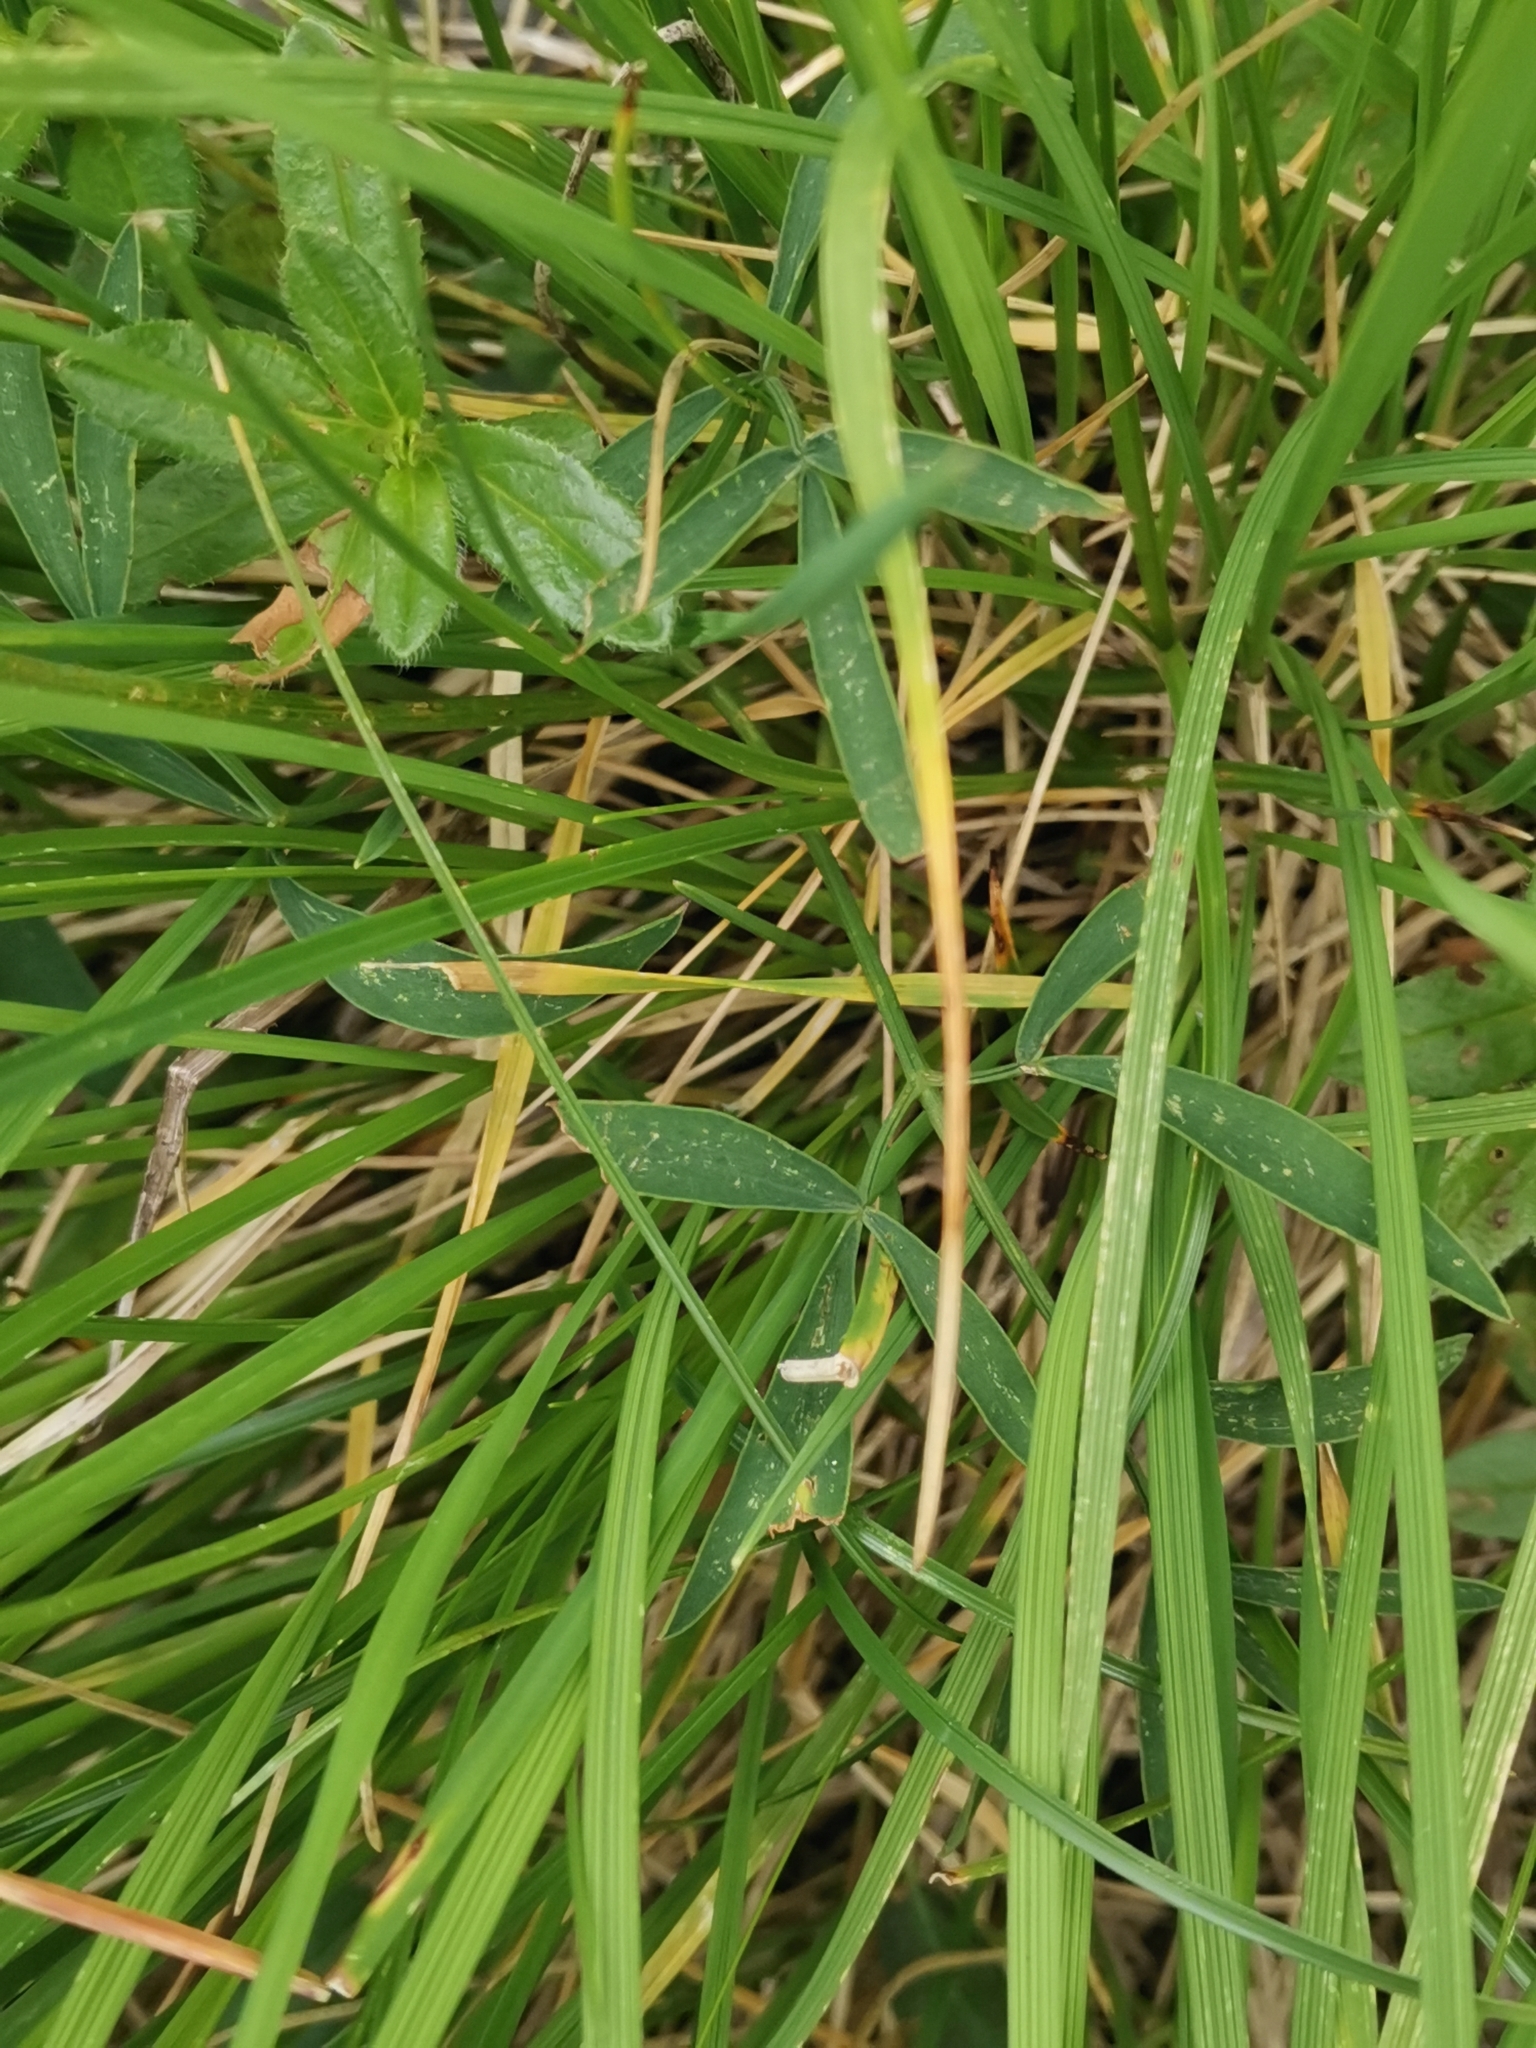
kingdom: Plantae
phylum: Tracheophyta
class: Magnoliopsida
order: Apiales
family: Apiaceae
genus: Laserpitium
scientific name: Laserpitium peucedanoides
